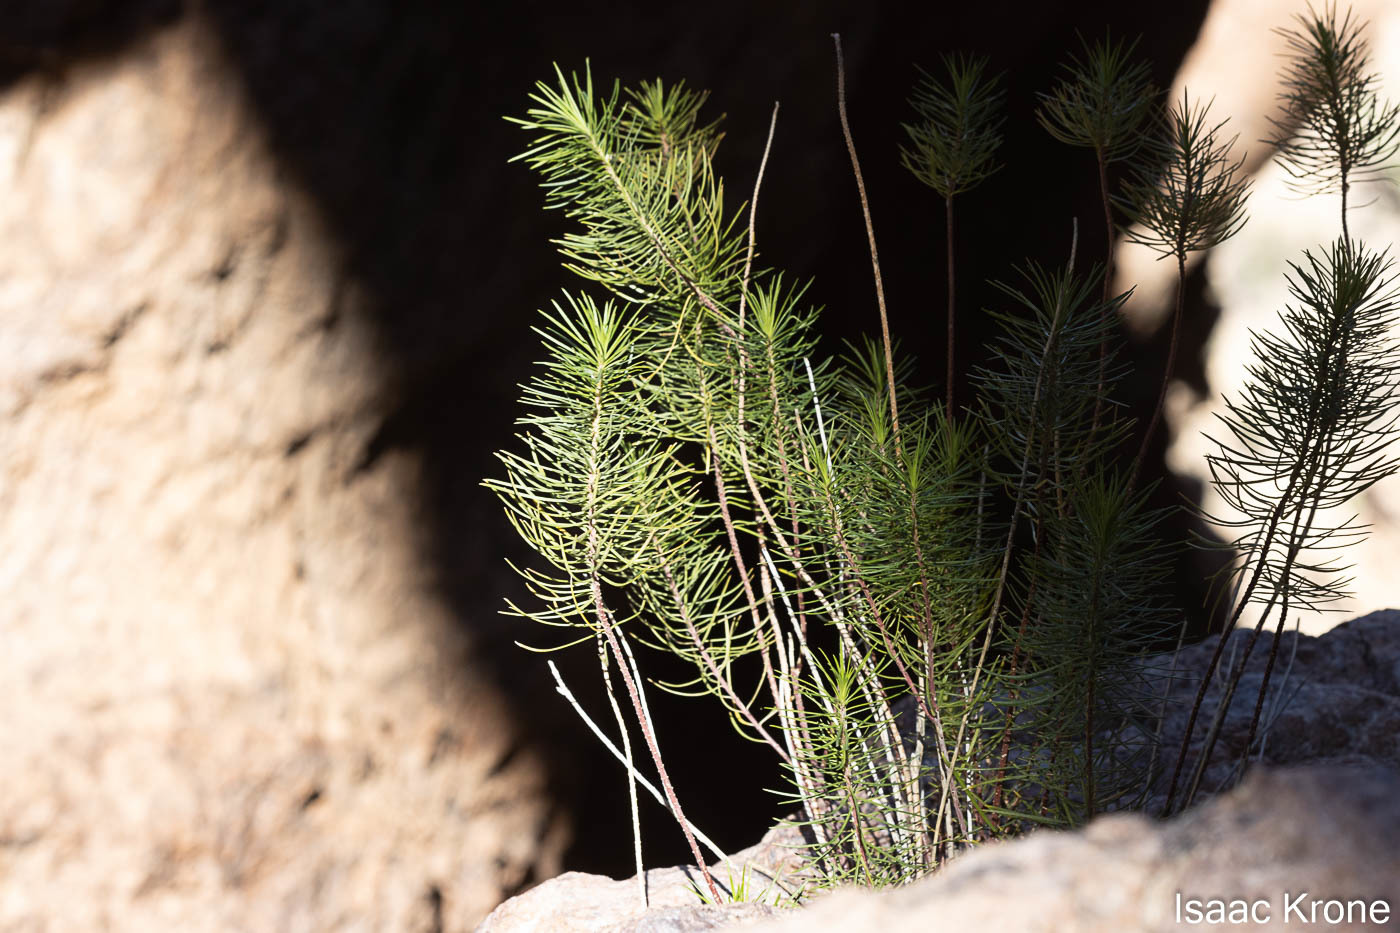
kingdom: Plantae
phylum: Tracheophyta
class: Magnoliopsida
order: Gentianales
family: Apocynaceae
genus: Asclepias
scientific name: Asclepias linaria
